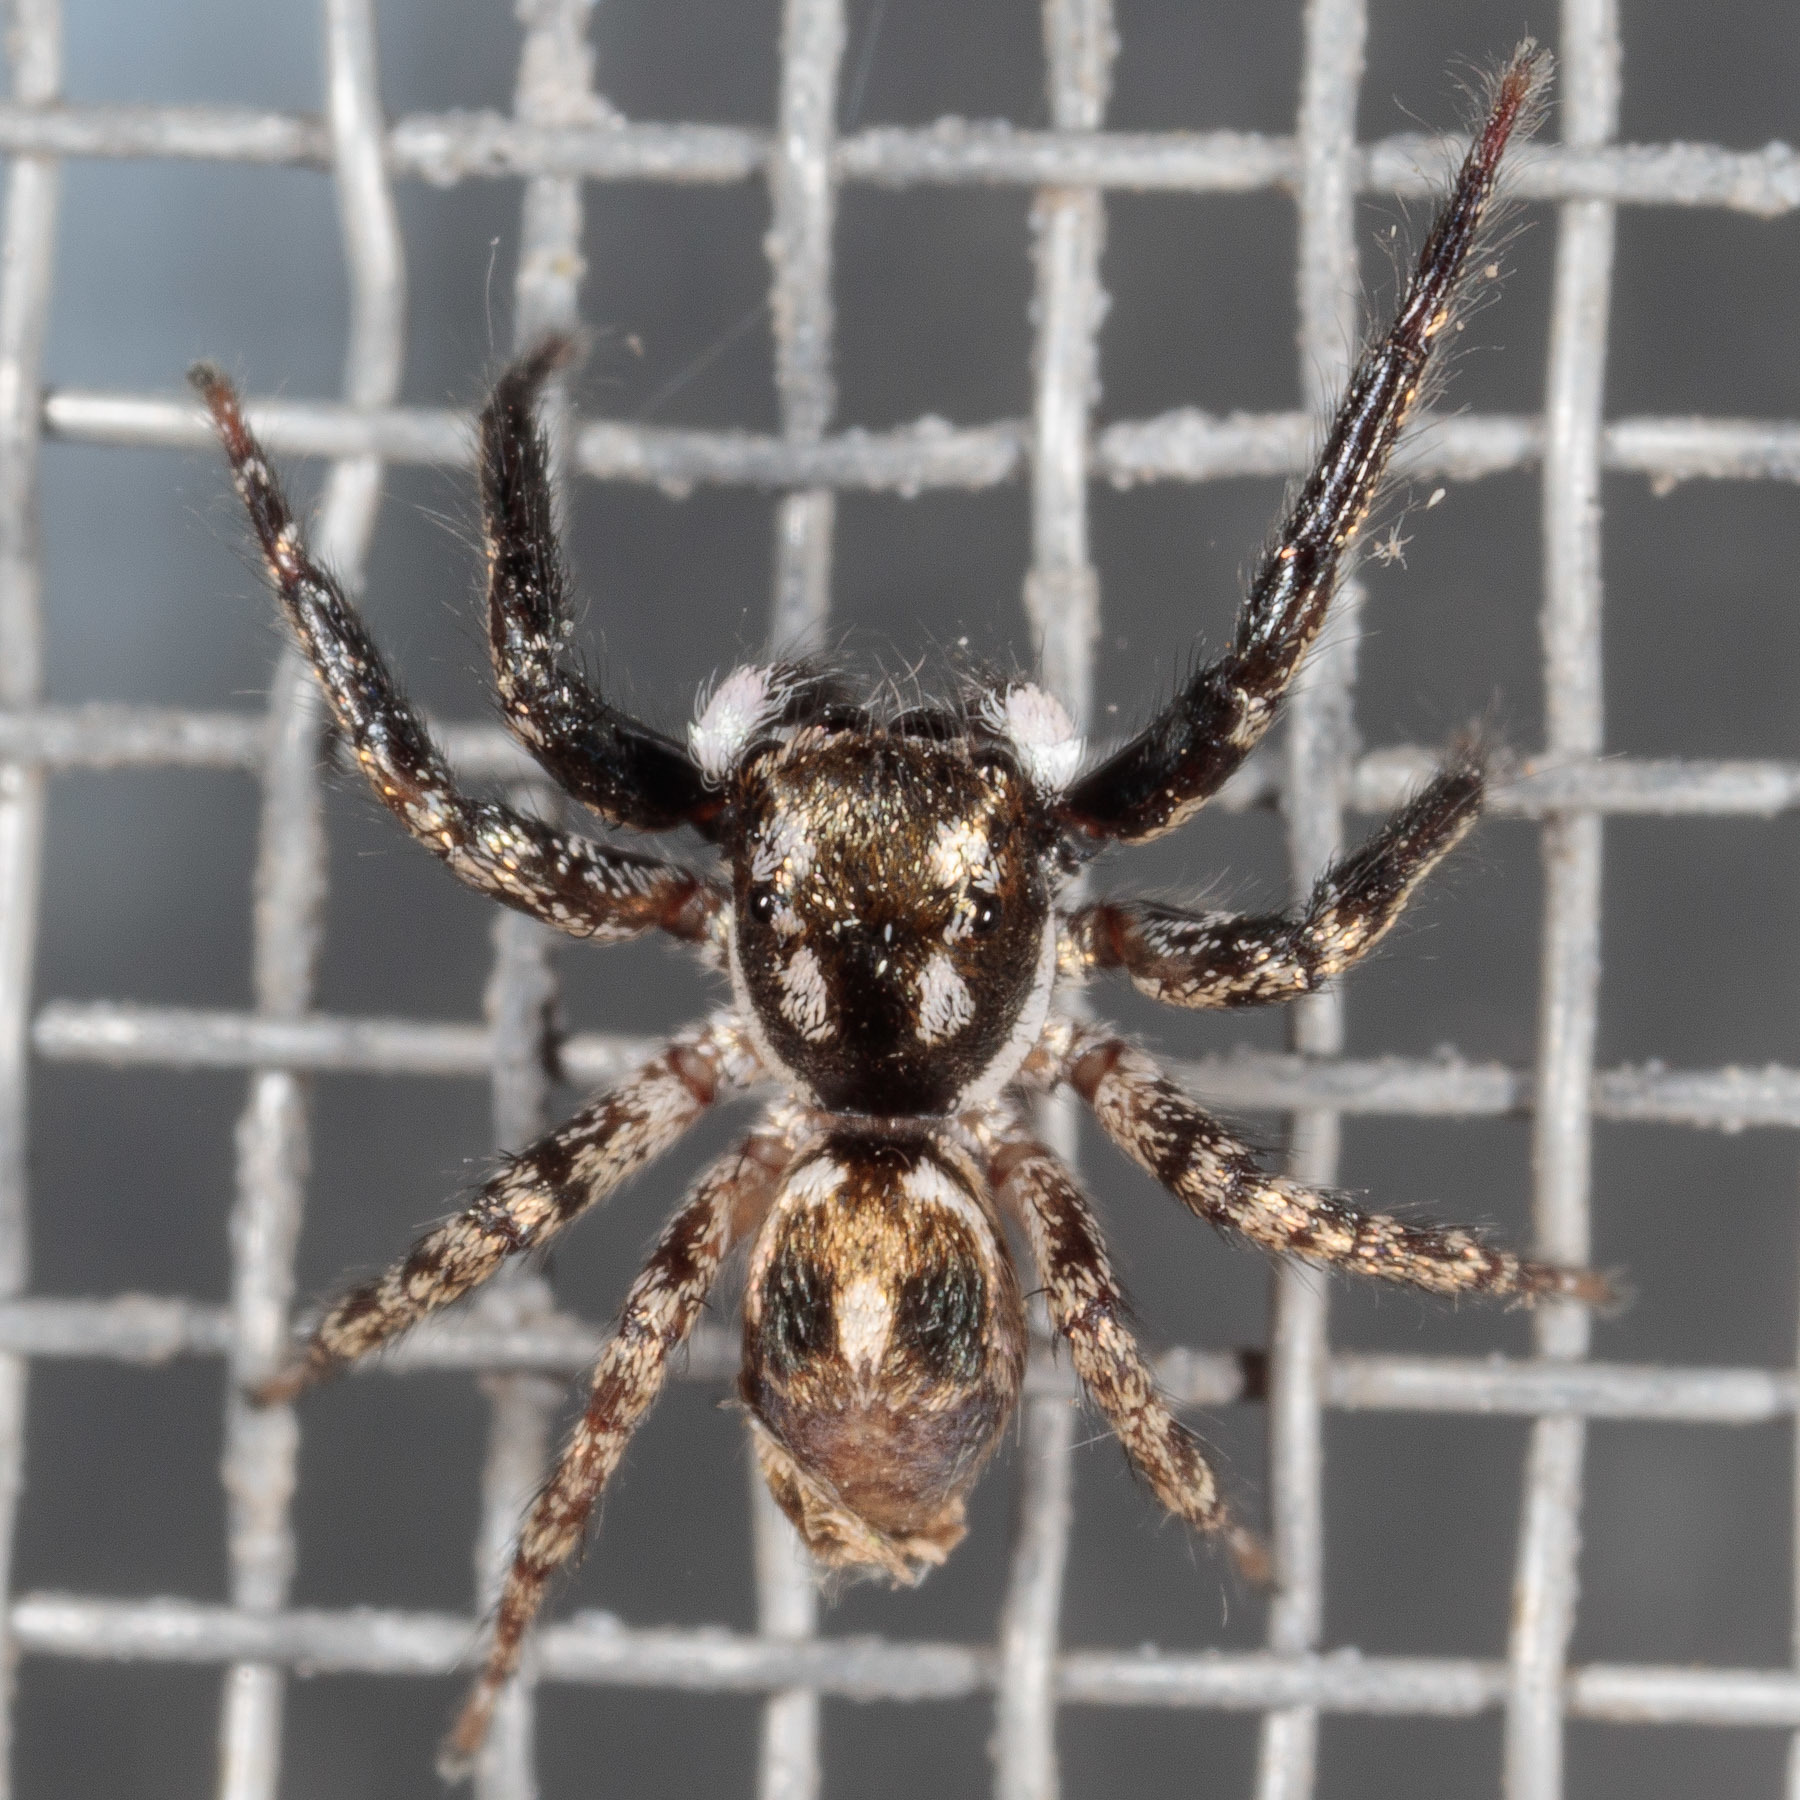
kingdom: Animalia
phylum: Arthropoda
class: Arachnida
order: Araneae
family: Salticidae
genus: Anasaitis
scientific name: Anasaitis canosa
